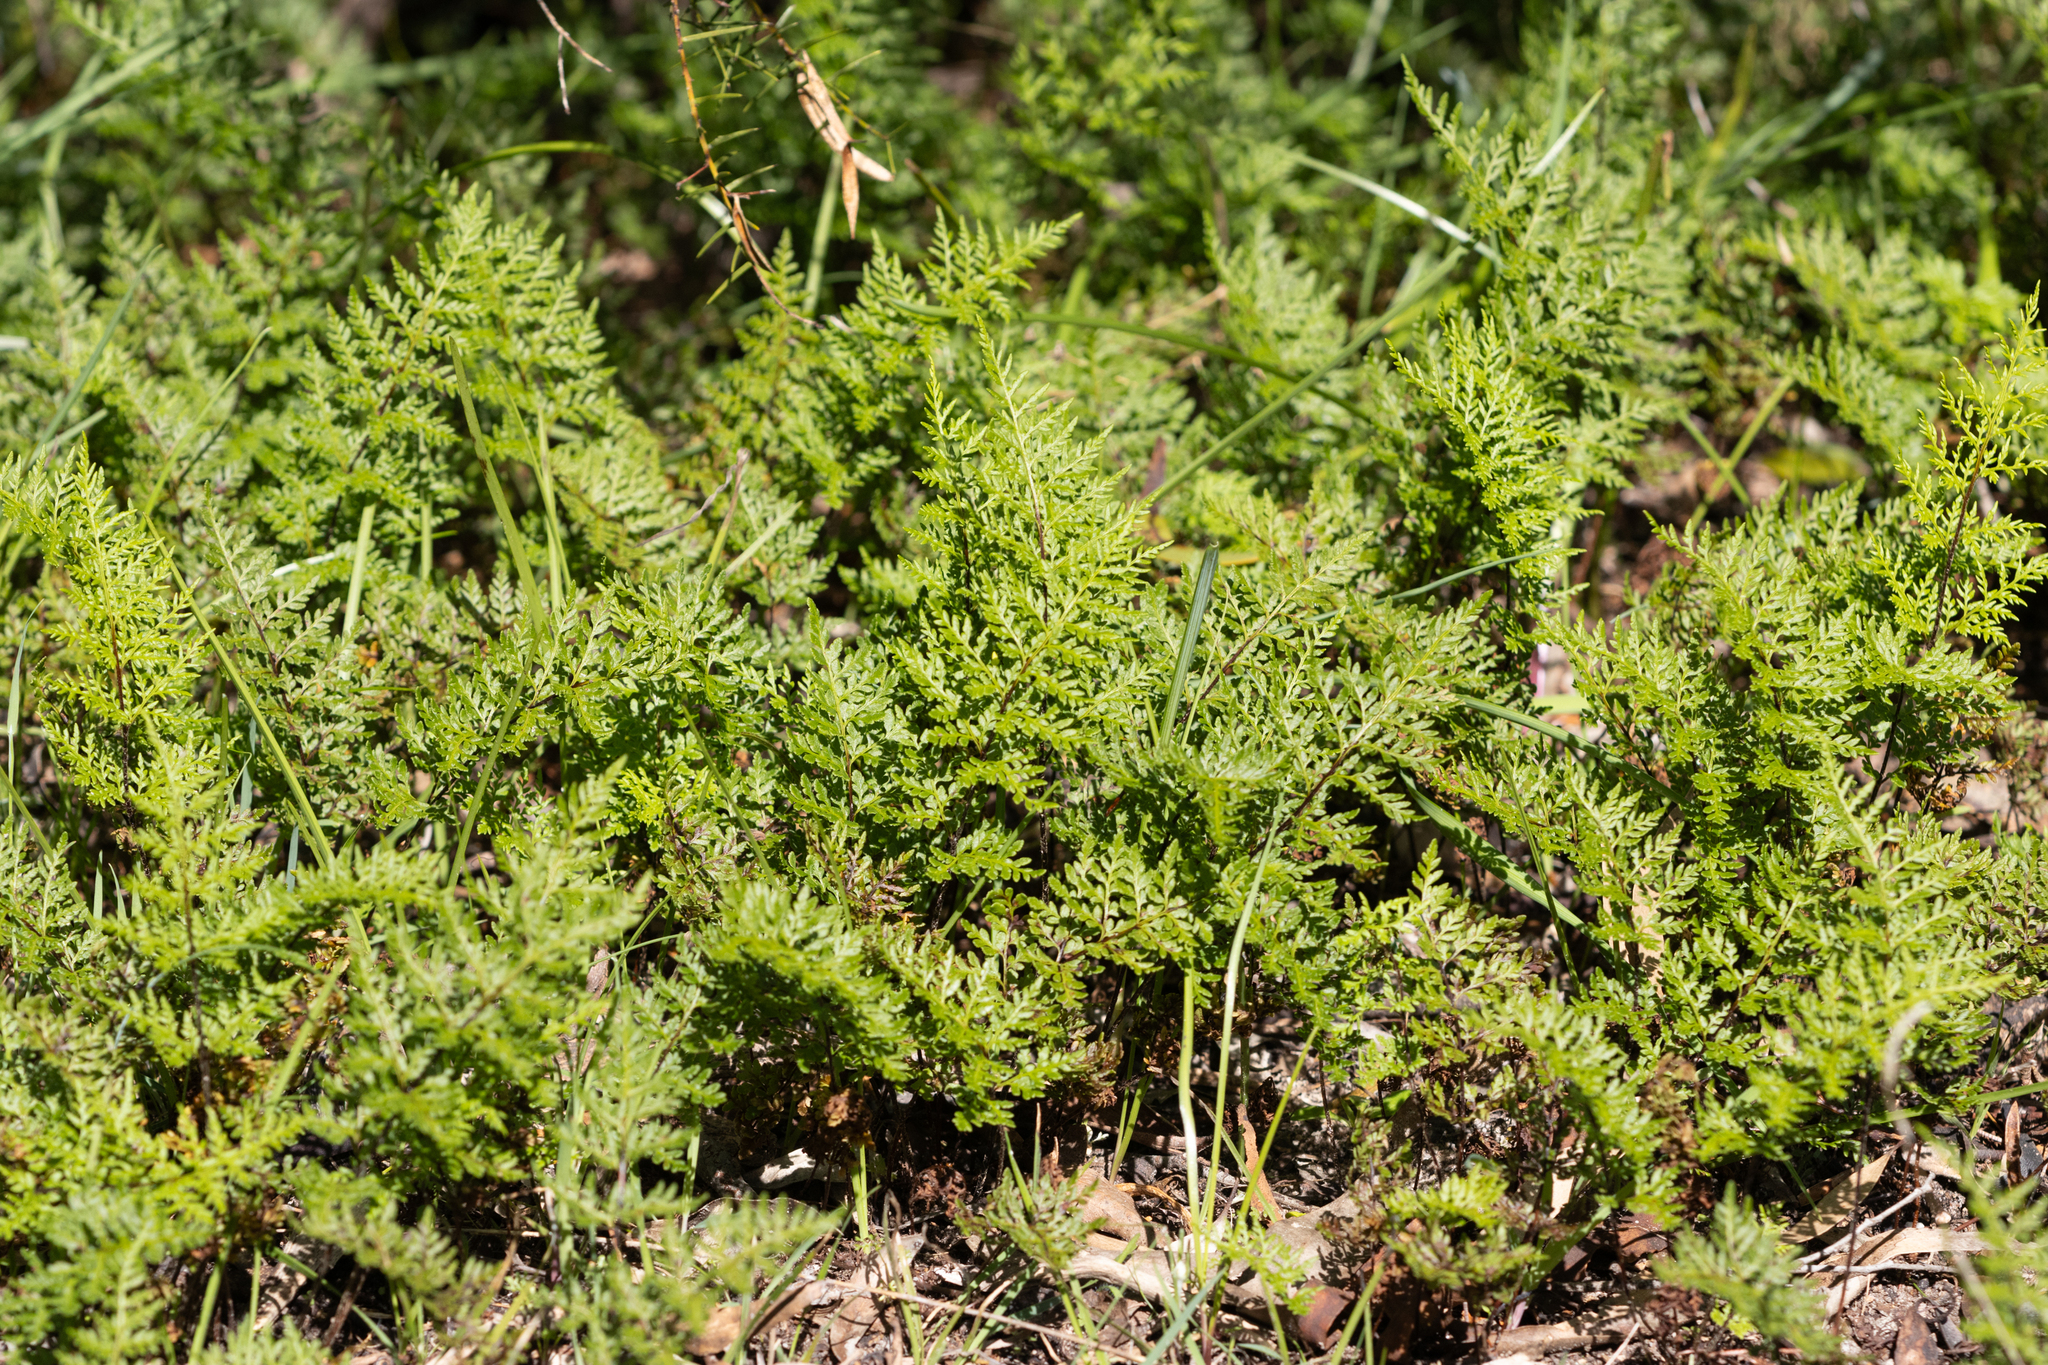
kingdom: Plantae
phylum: Tracheophyta
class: Polypodiopsida
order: Polypodiales
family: Pteridaceae
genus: Cheilanthes
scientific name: Cheilanthes austrotenuifolia
